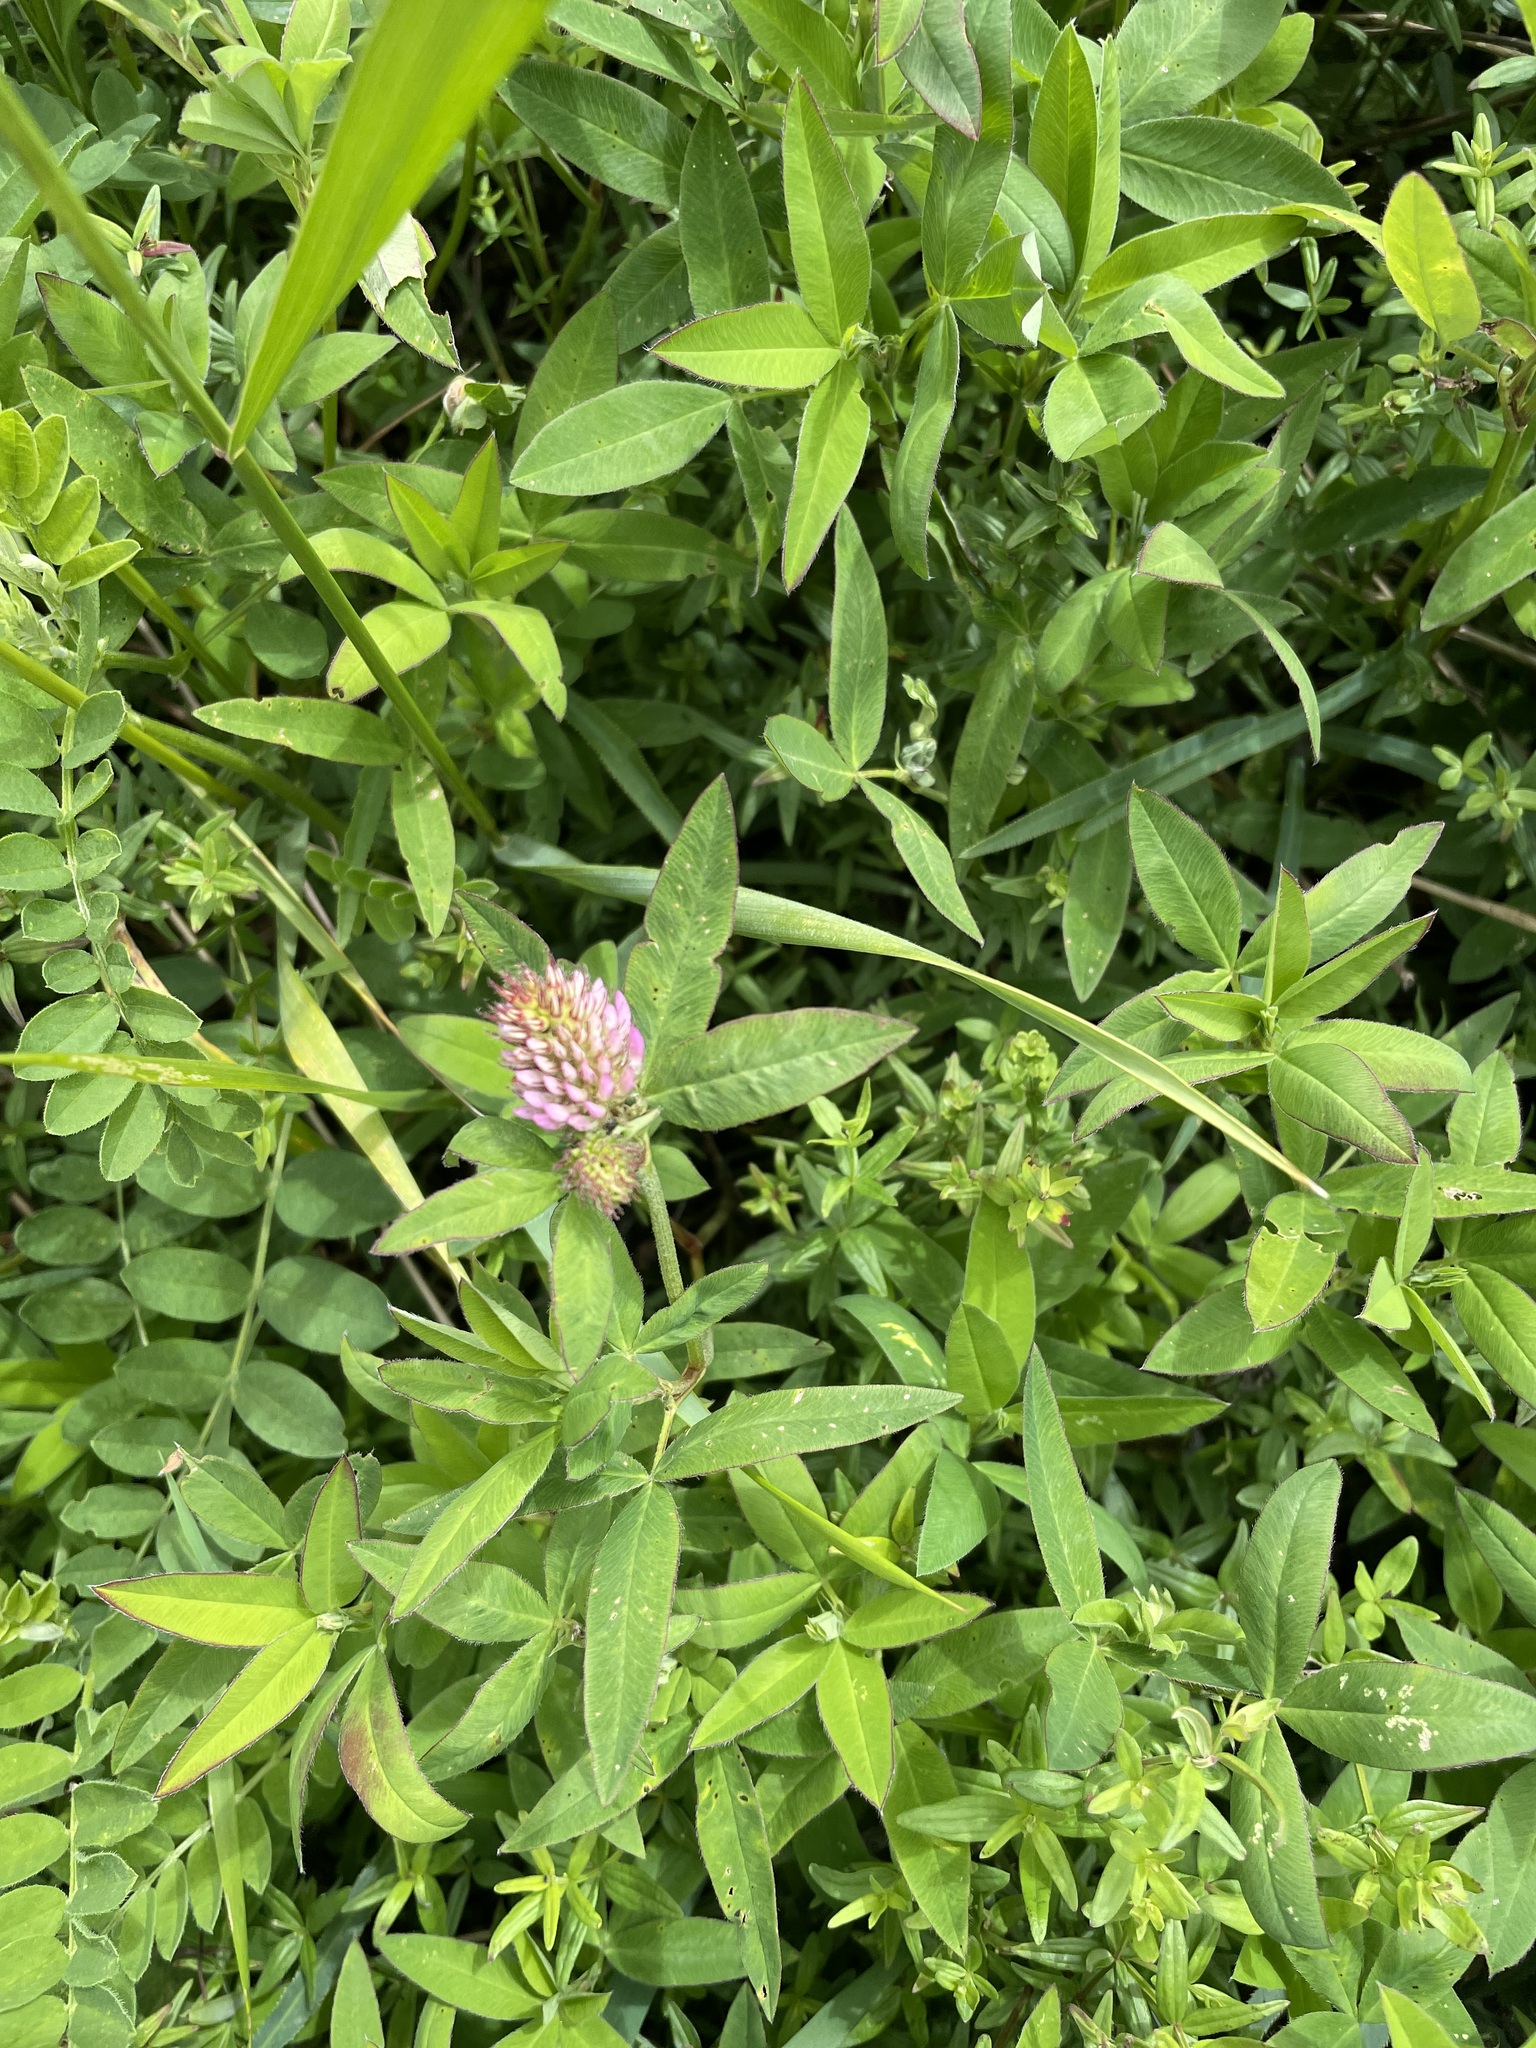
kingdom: Plantae
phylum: Tracheophyta
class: Magnoliopsida
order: Fabales
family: Fabaceae
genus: Trifolium
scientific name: Trifolium medium
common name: Zigzag clover
